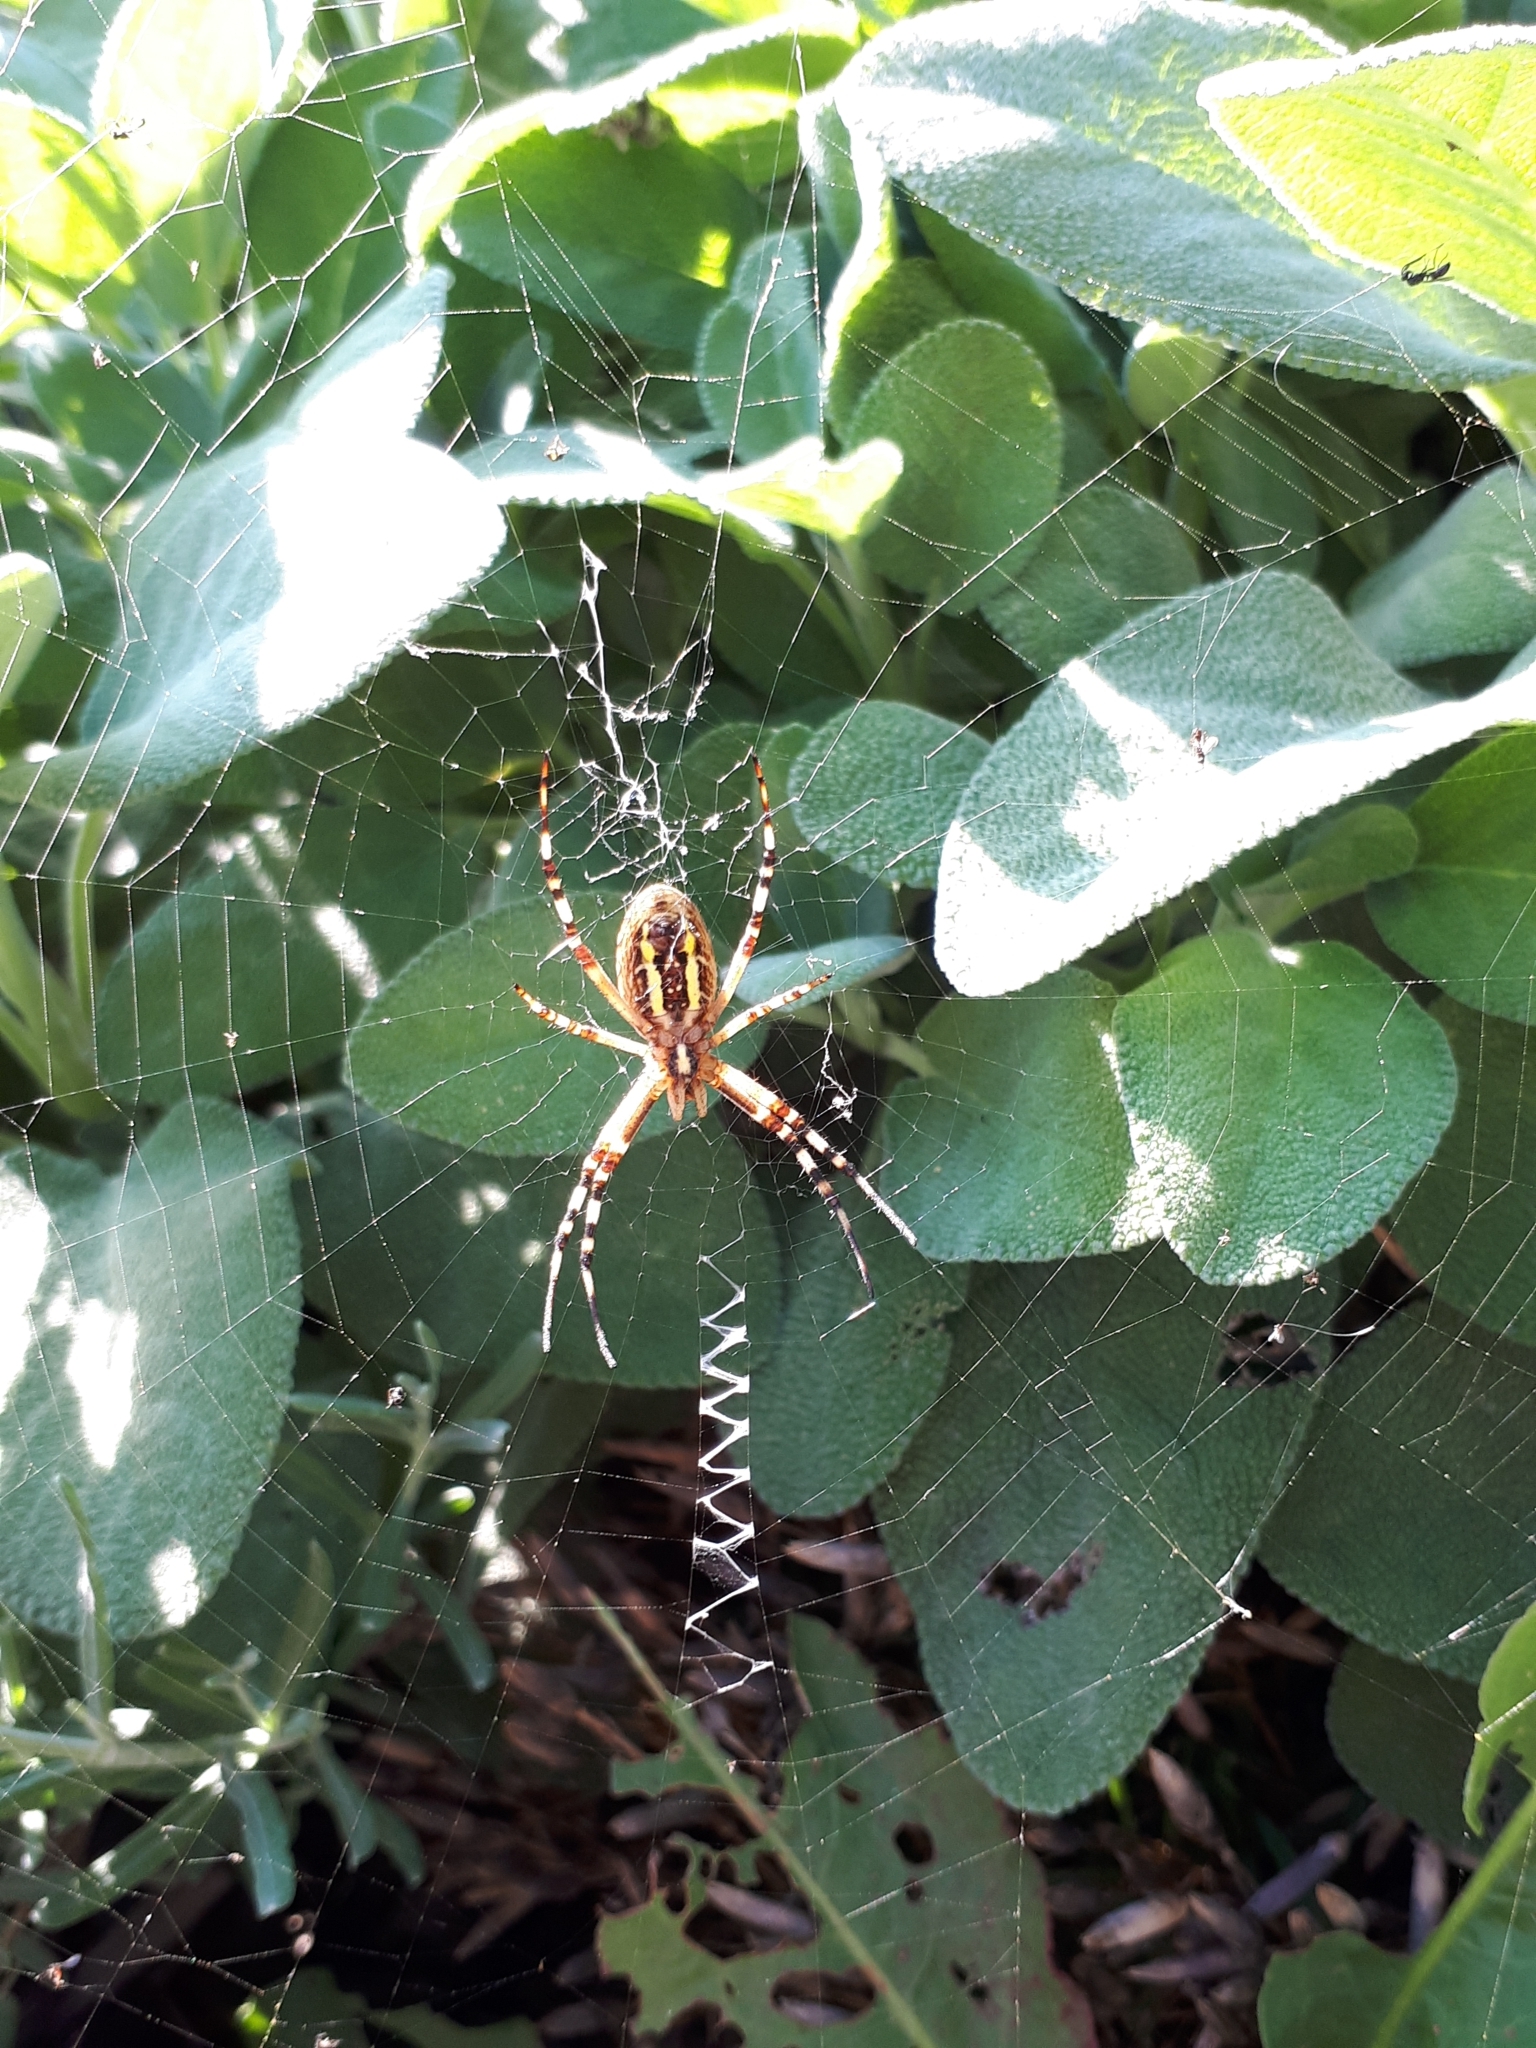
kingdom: Animalia
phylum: Arthropoda
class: Arachnida
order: Araneae
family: Araneidae
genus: Argiope
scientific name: Argiope bruennichi
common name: Wasp spider
